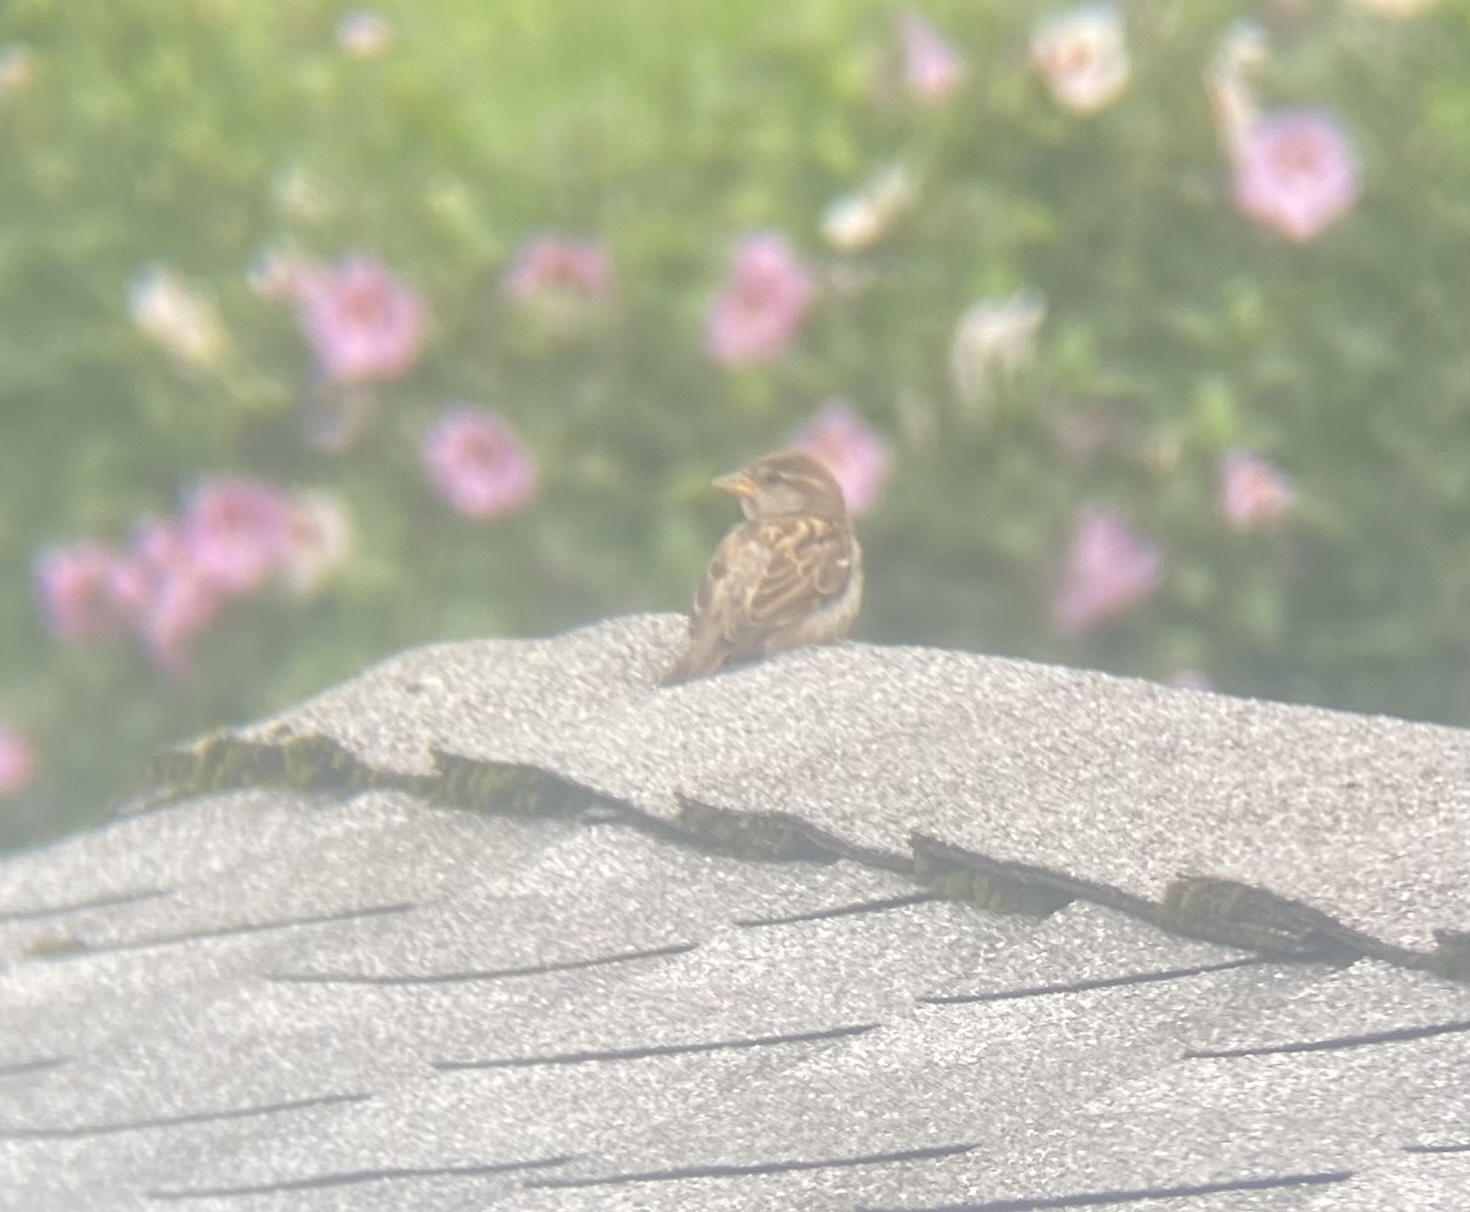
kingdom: Animalia
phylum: Chordata
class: Aves
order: Passeriformes
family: Passeridae
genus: Passer
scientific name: Passer domesticus
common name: House sparrow
